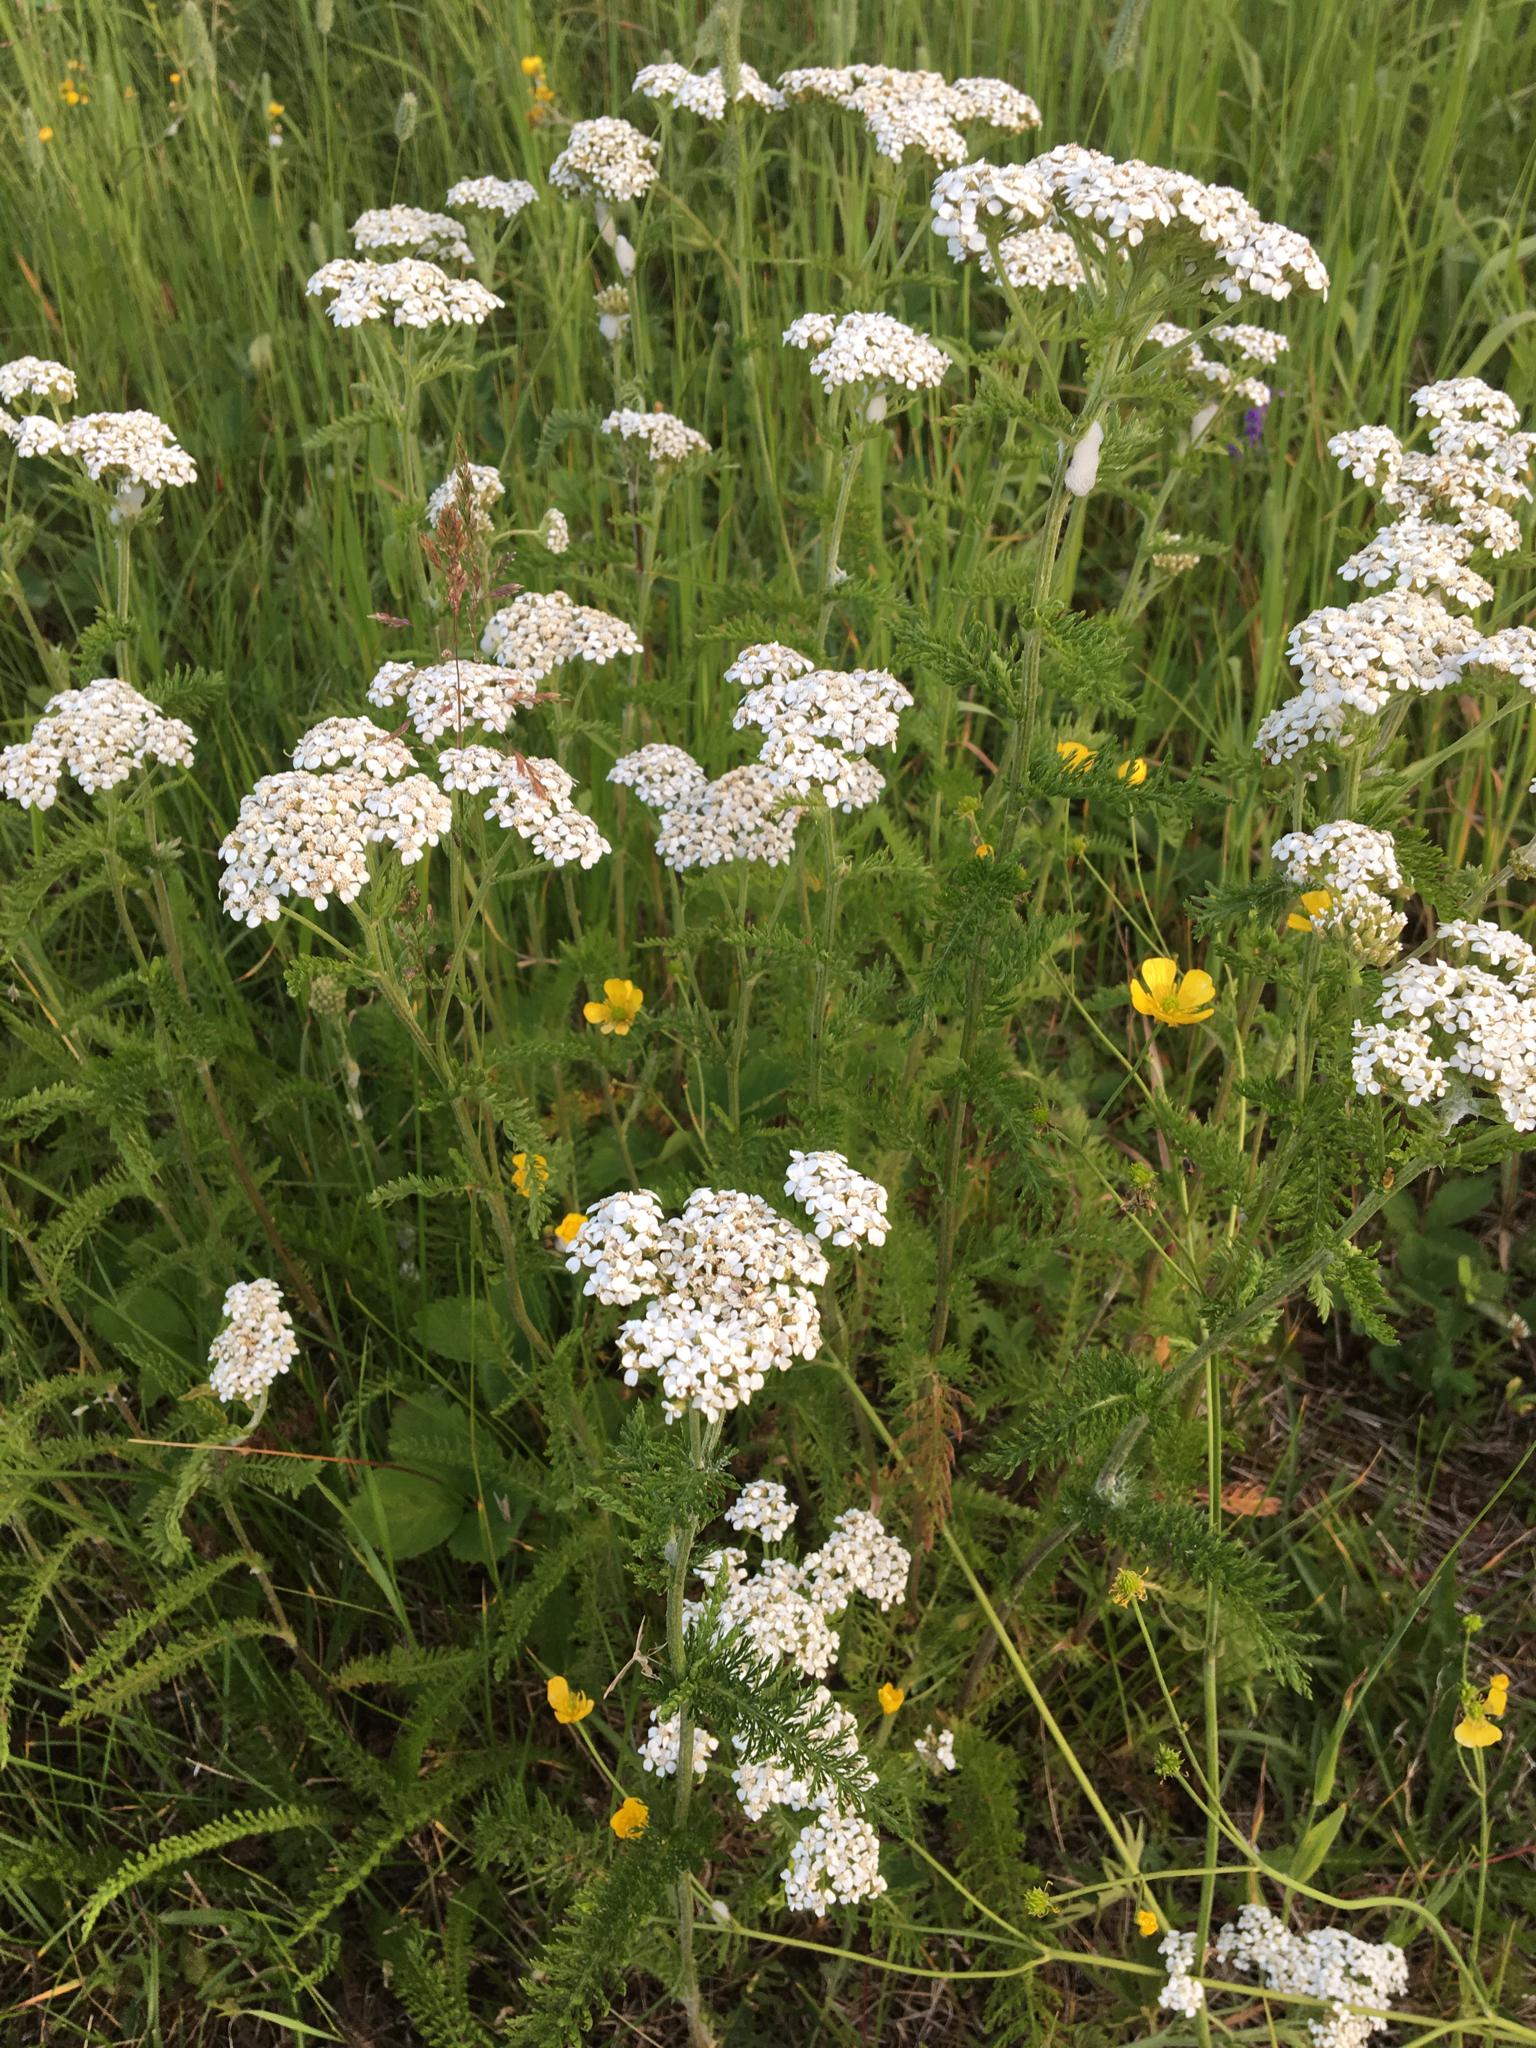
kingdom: Plantae
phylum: Tracheophyta
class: Magnoliopsida
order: Asterales
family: Asteraceae
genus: Achillea
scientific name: Achillea millefolium
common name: Yarrow
